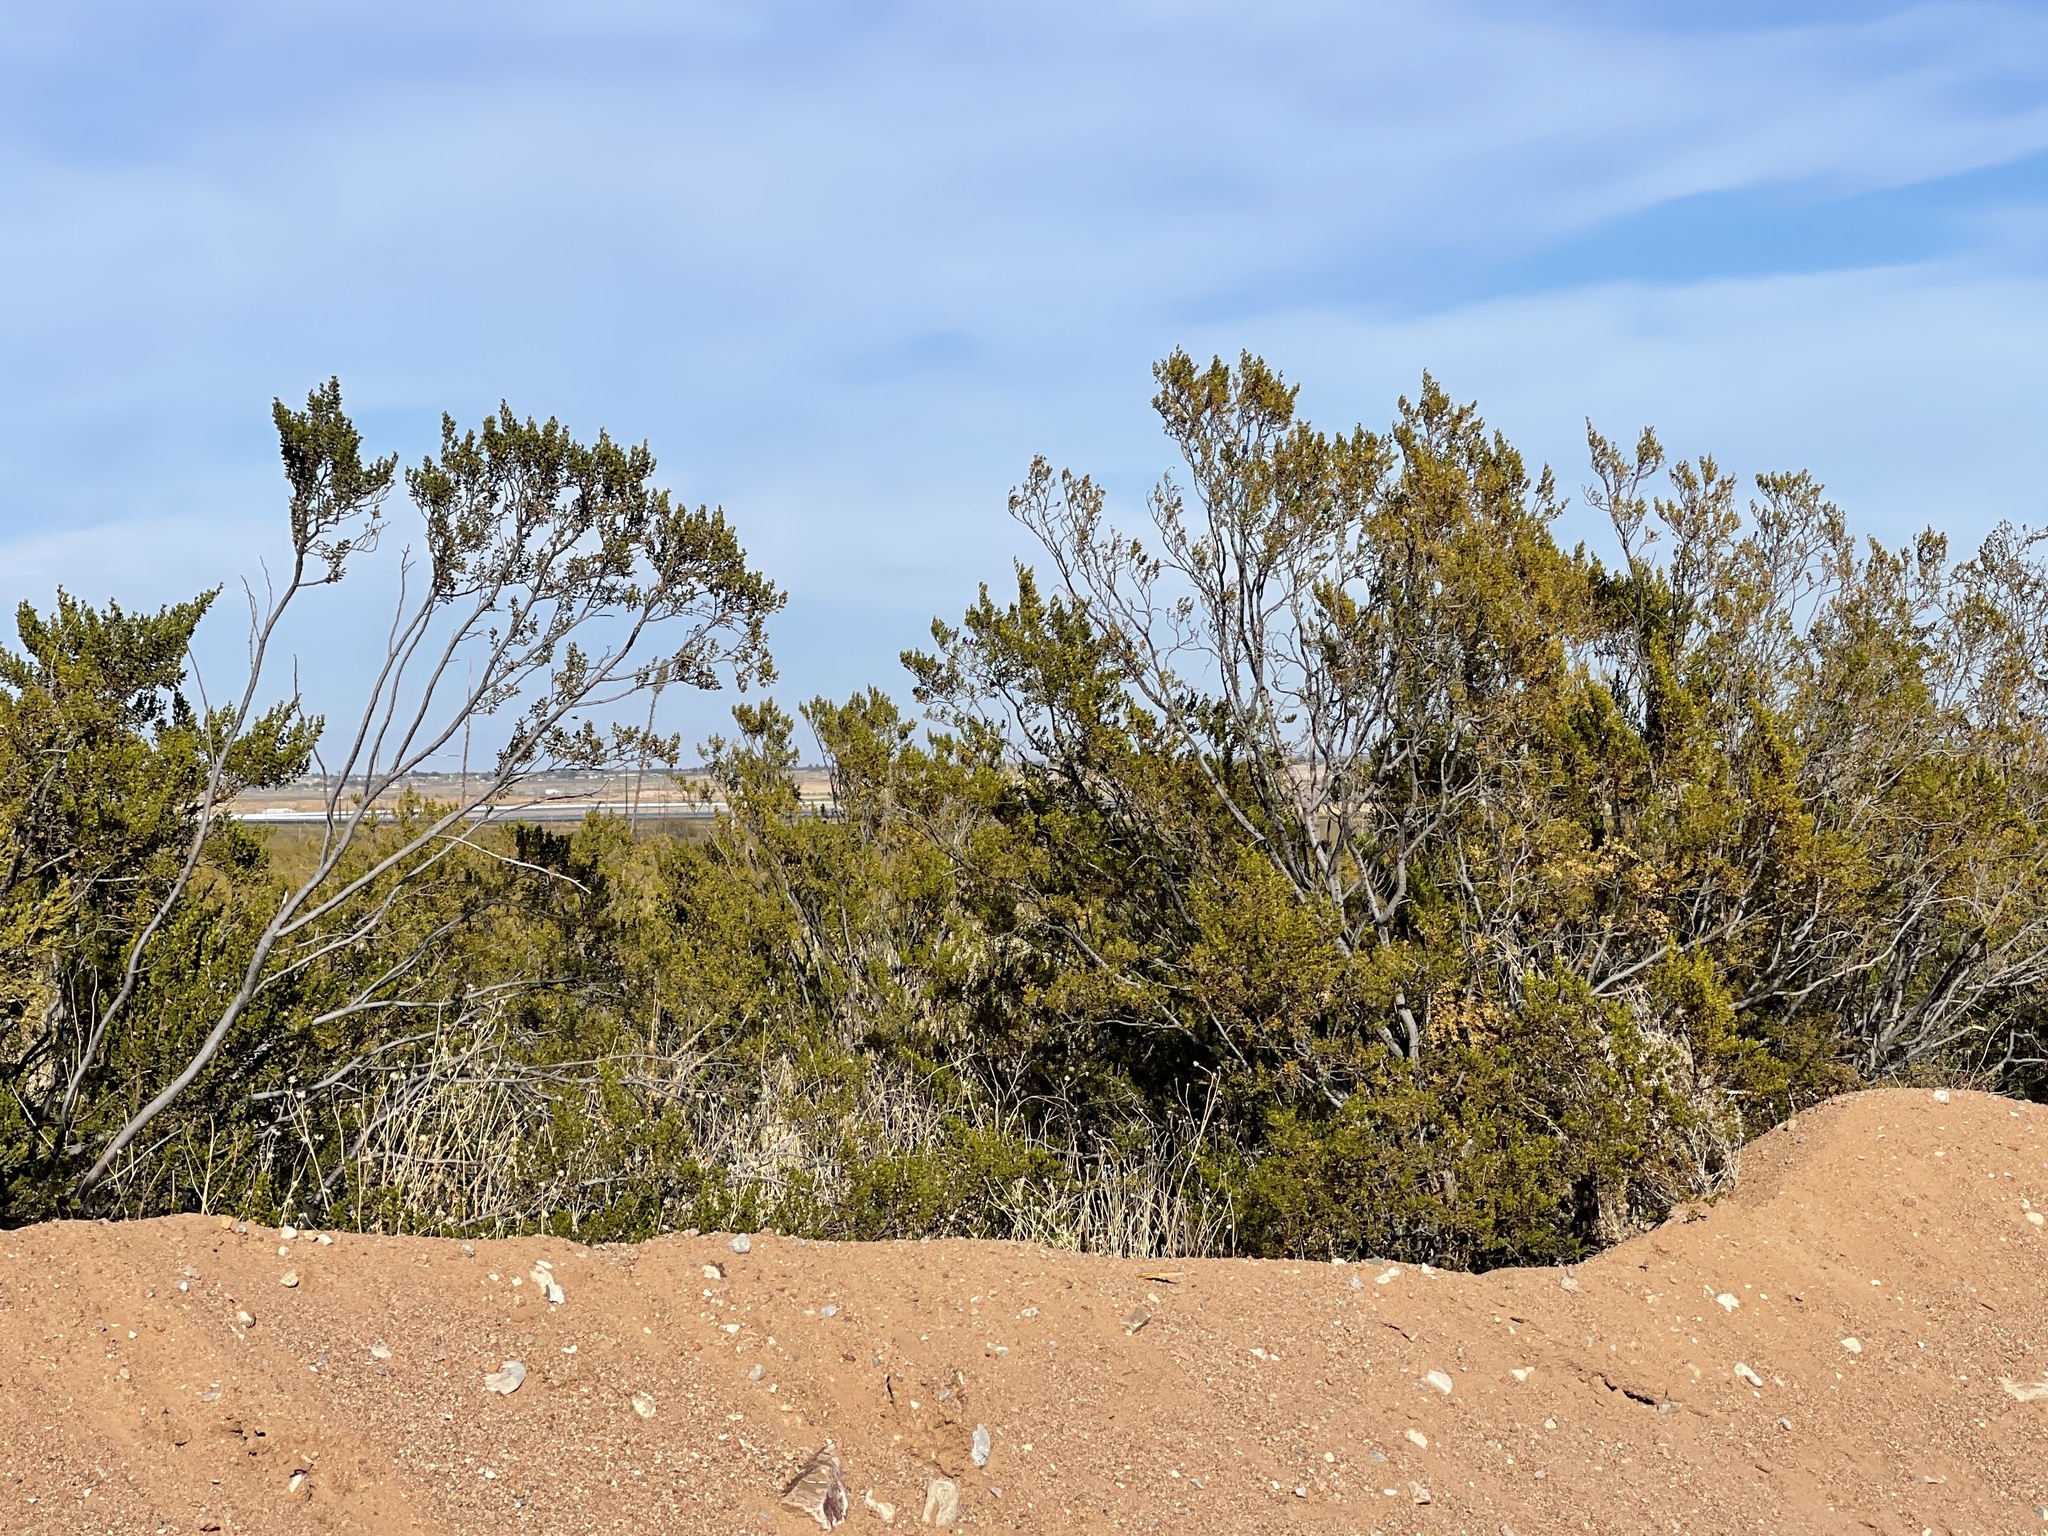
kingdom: Plantae
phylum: Tracheophyta
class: Magnoliopsida
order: Zygophyllales
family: Zygophyllaceae
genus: Larrea
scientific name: Larrea tridentata
